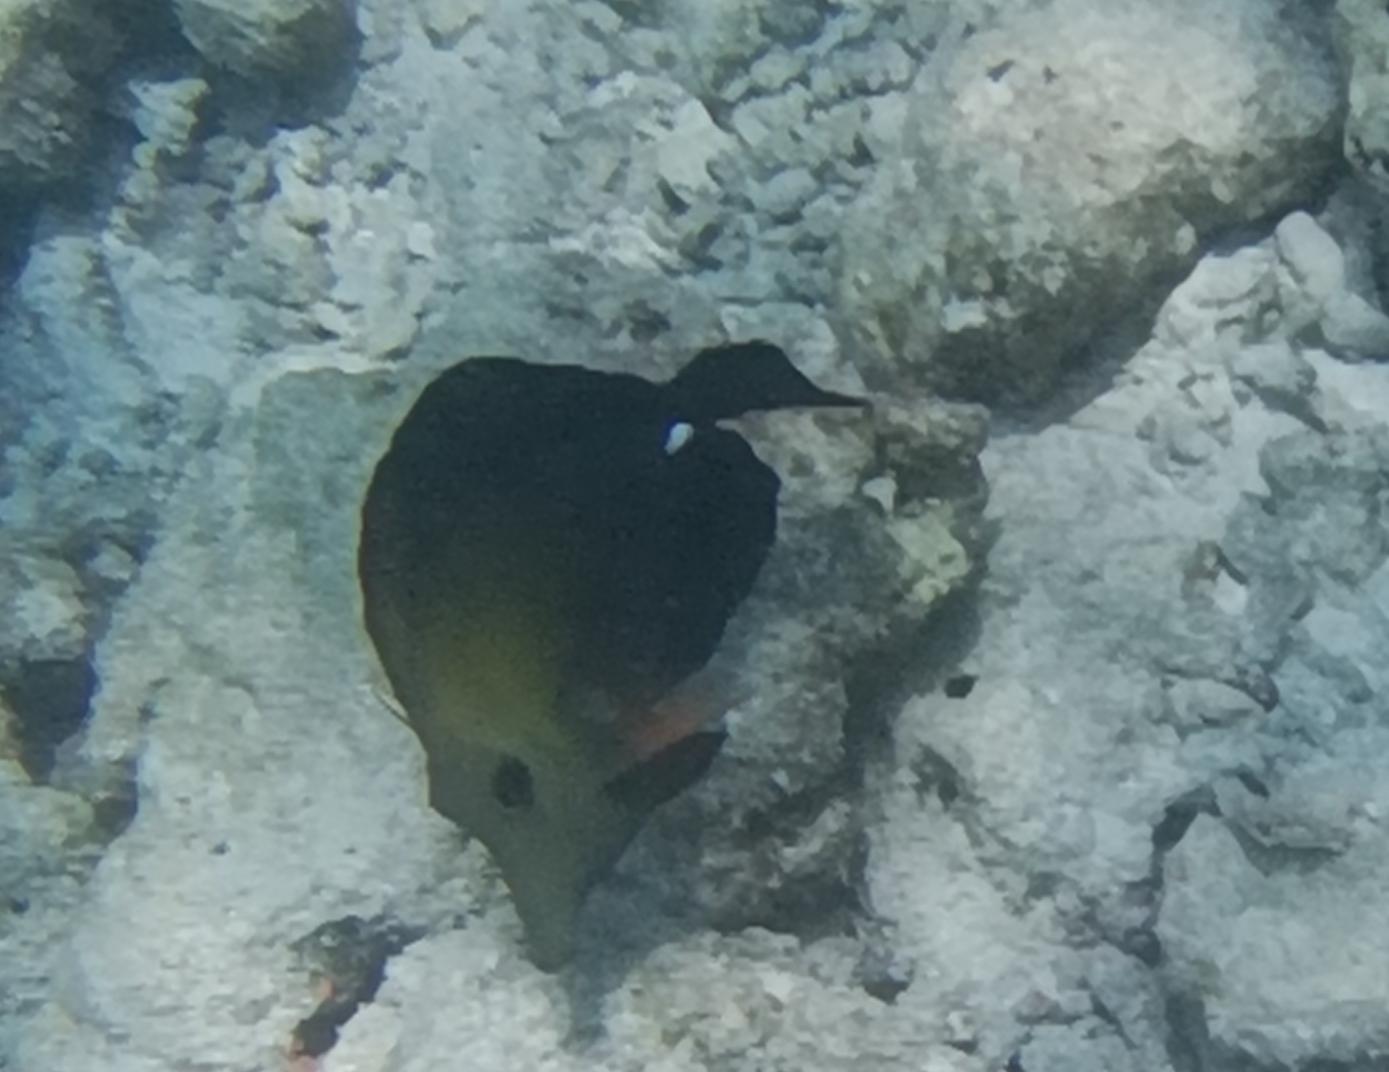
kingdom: Animalia
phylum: Chordata
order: Perciformes
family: Acanthuridae
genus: Zebrasoma
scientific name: Zebrasoma scopas
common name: Twotone tang
